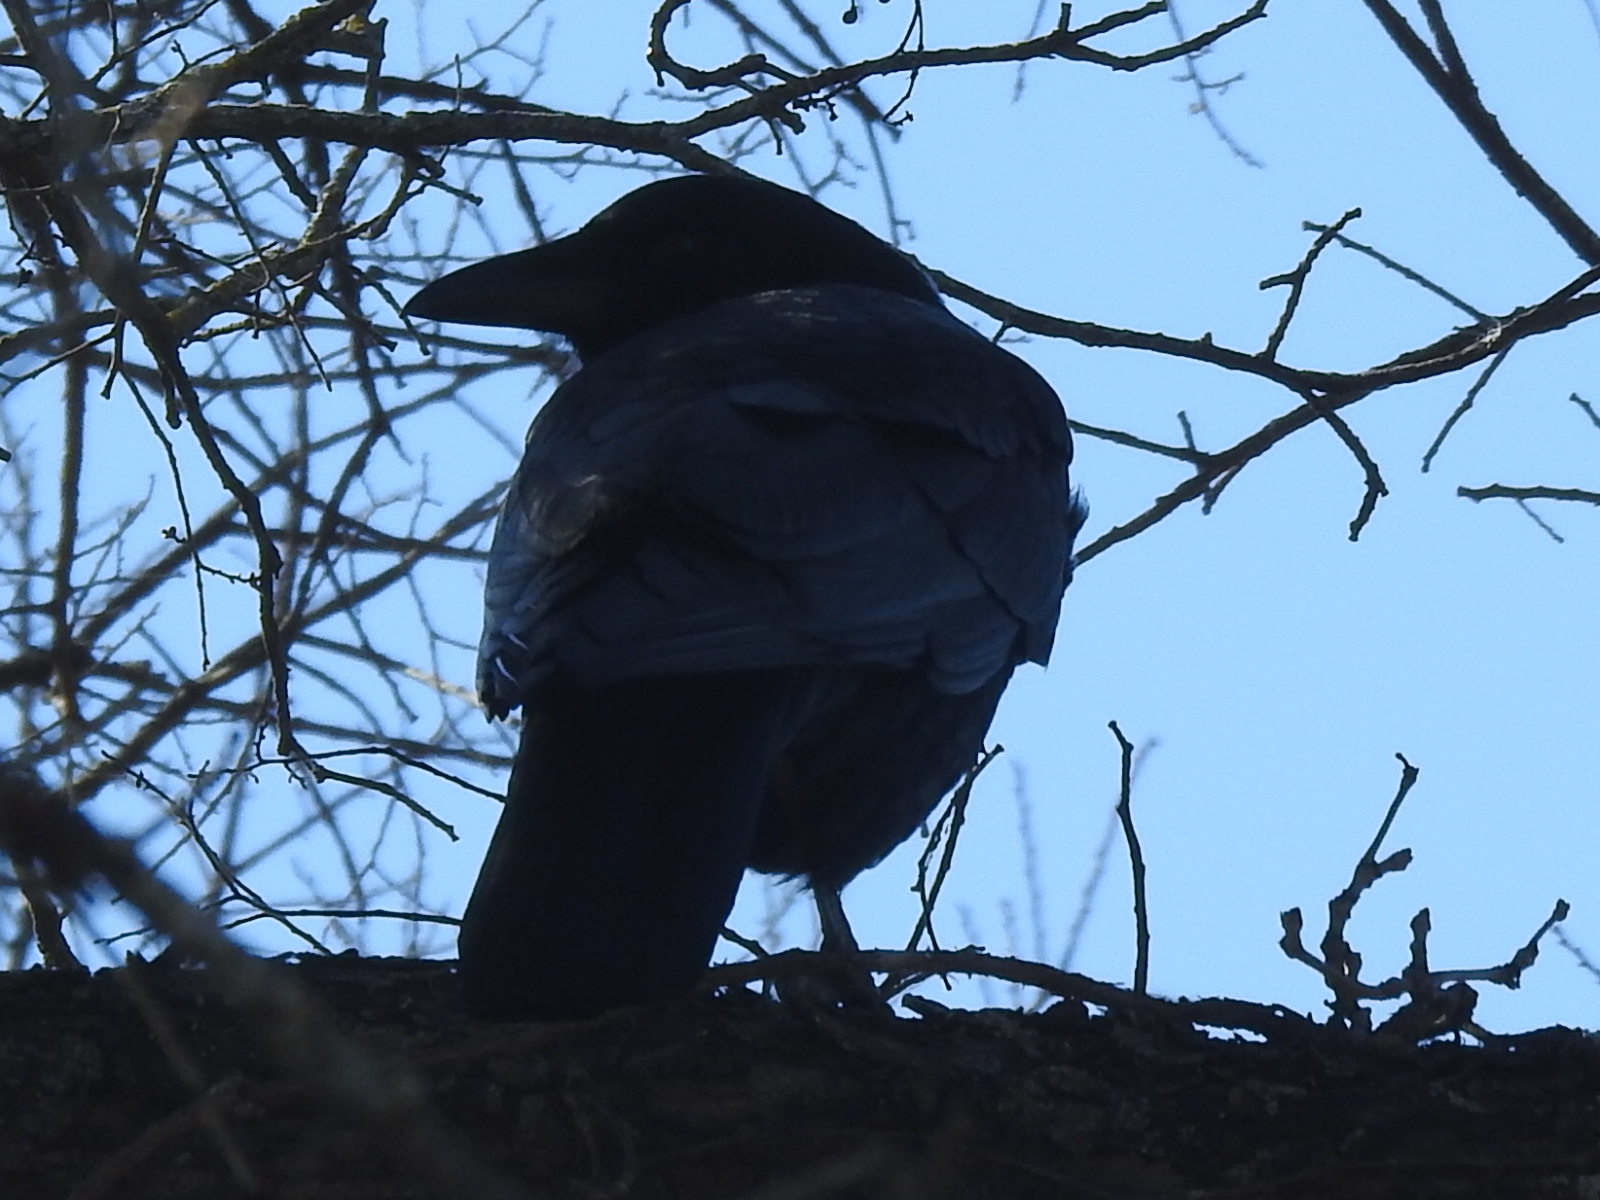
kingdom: Animalia
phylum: Chordata
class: Aves
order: Passeriformes
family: Corvidae
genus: Corvus
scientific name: Corvus brachyrhynchos
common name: American crow
